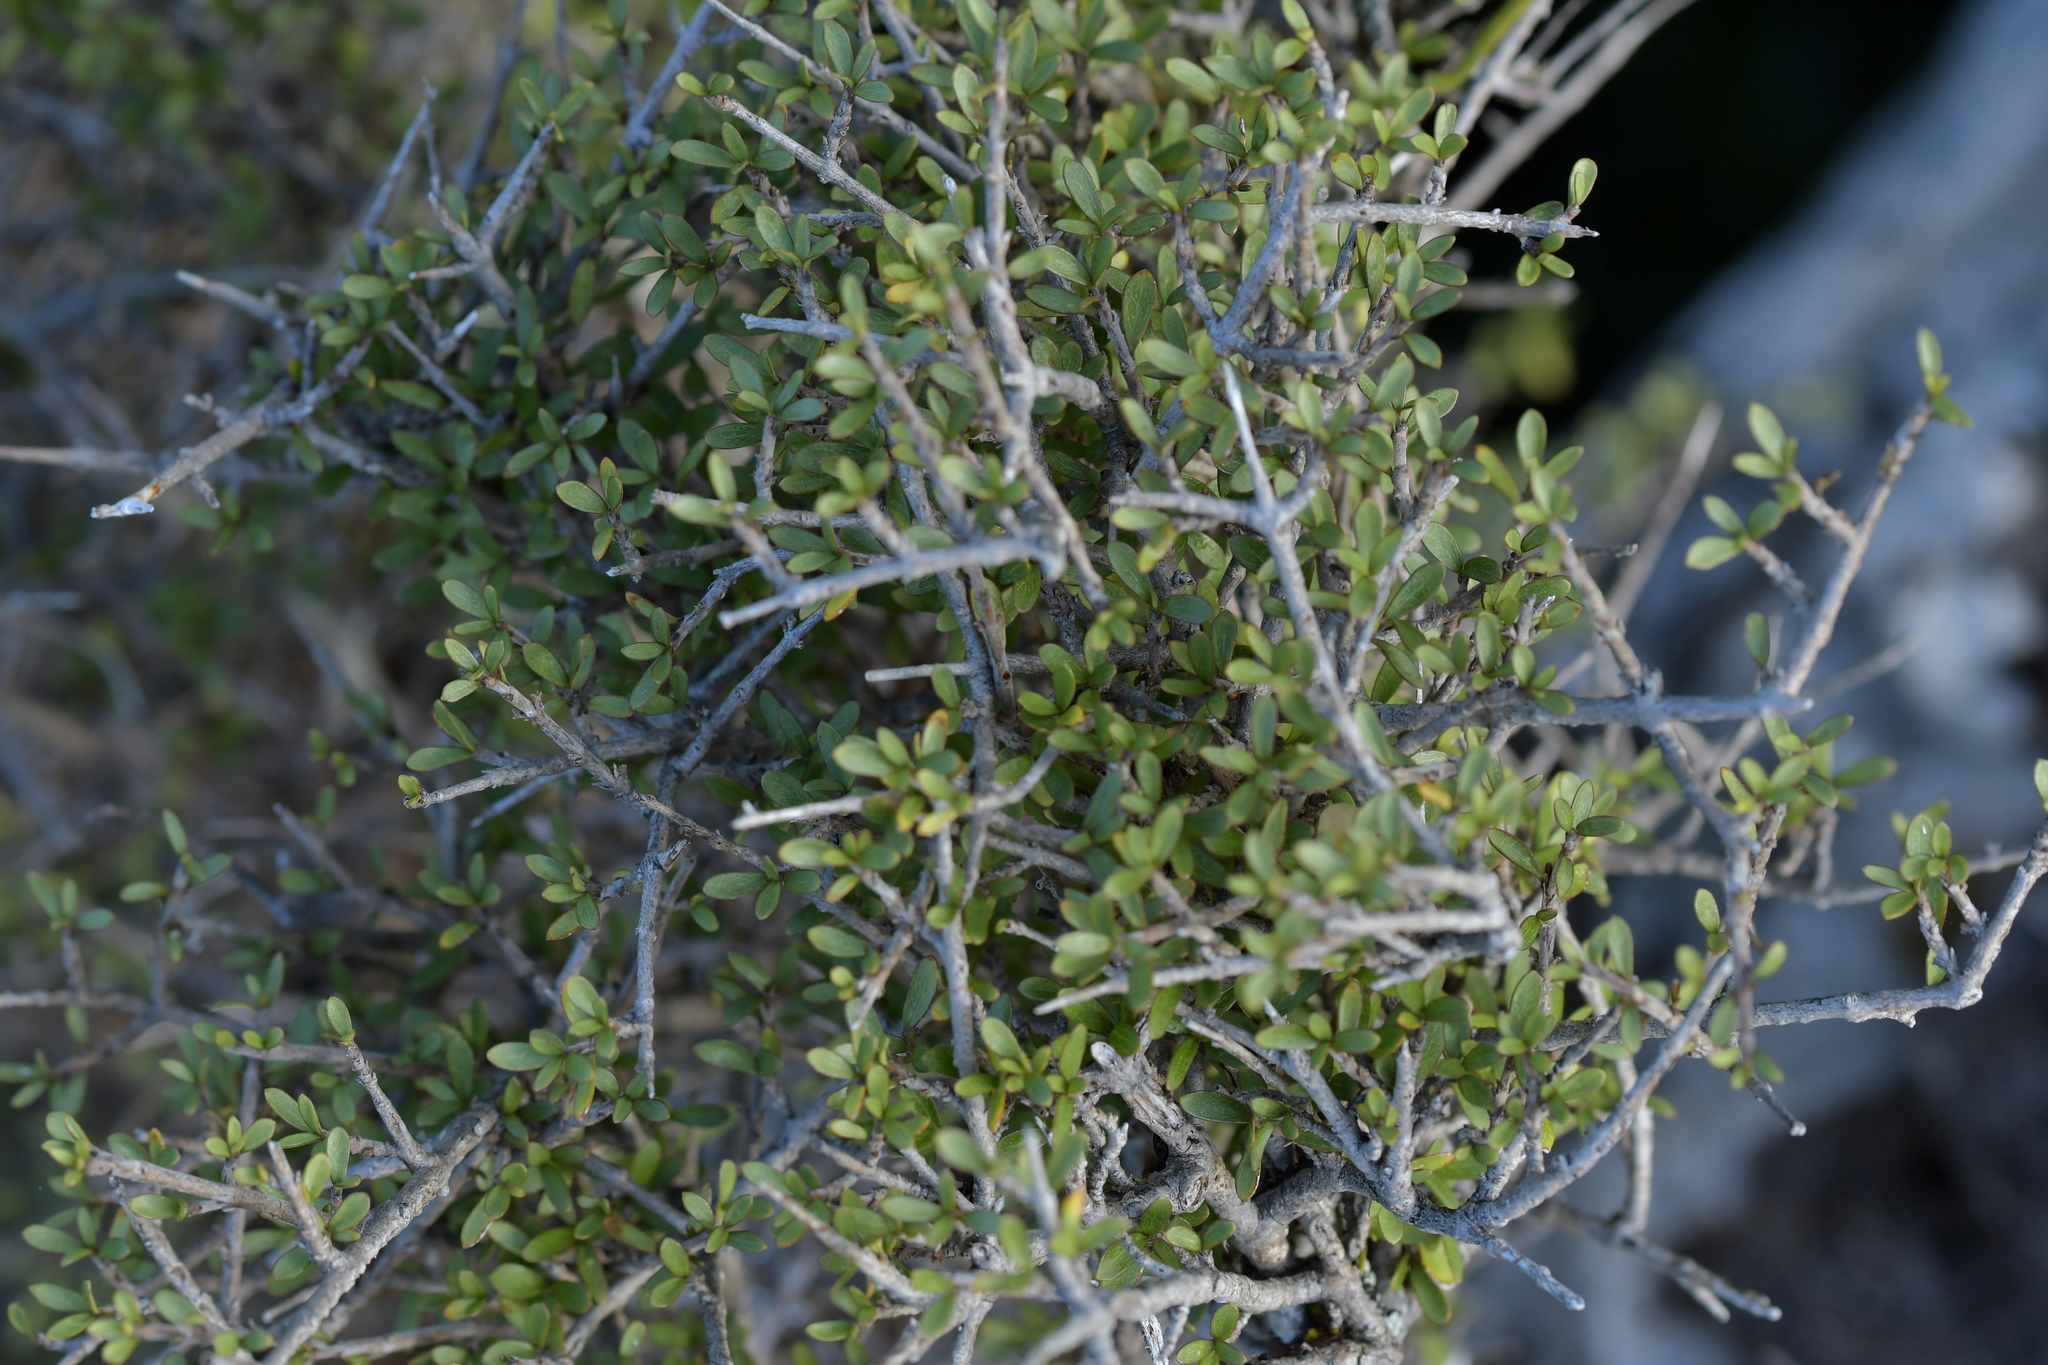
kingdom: Plantae
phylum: Tracheophyta
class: Magnoliopsida
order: Gentianales
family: Rubiaceae
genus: Coprosma
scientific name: Coprosma dumosa
